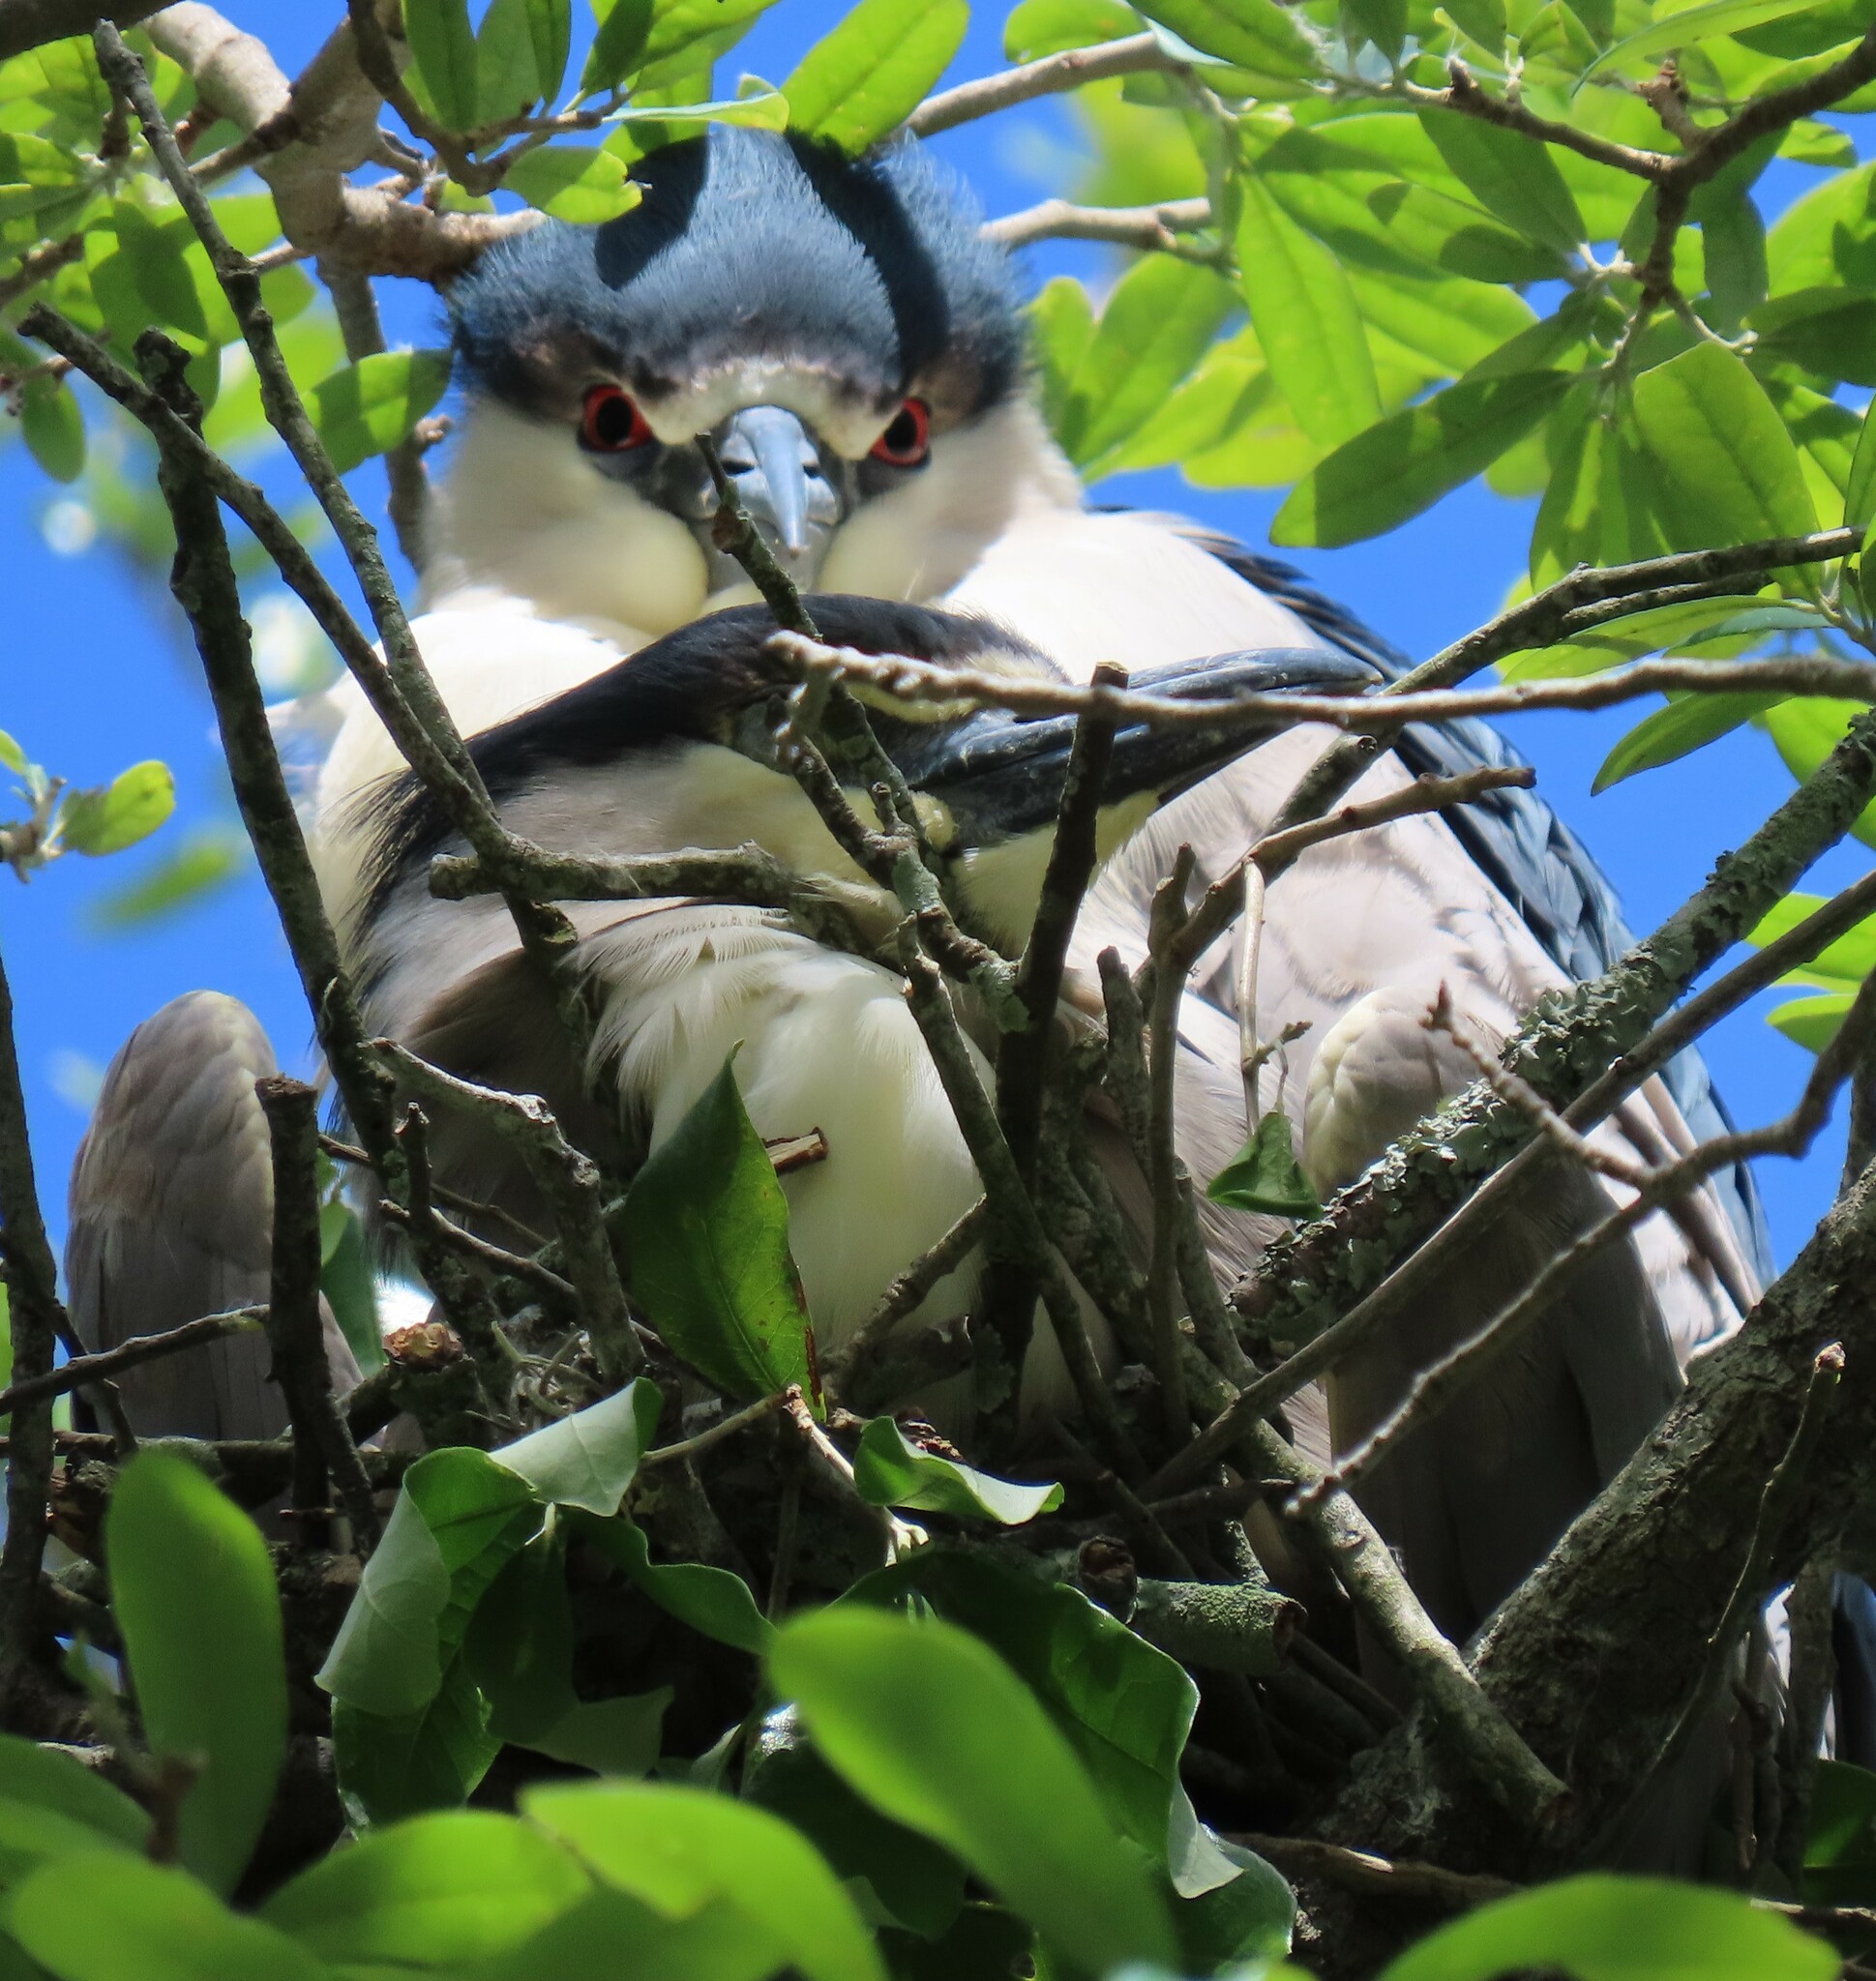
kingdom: Animalia
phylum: Chordata
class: Aves
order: Pelecaniformes
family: Ardeidae
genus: Nycticorax
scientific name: Nycticorax nycticorax
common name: Black-crowned night heron
